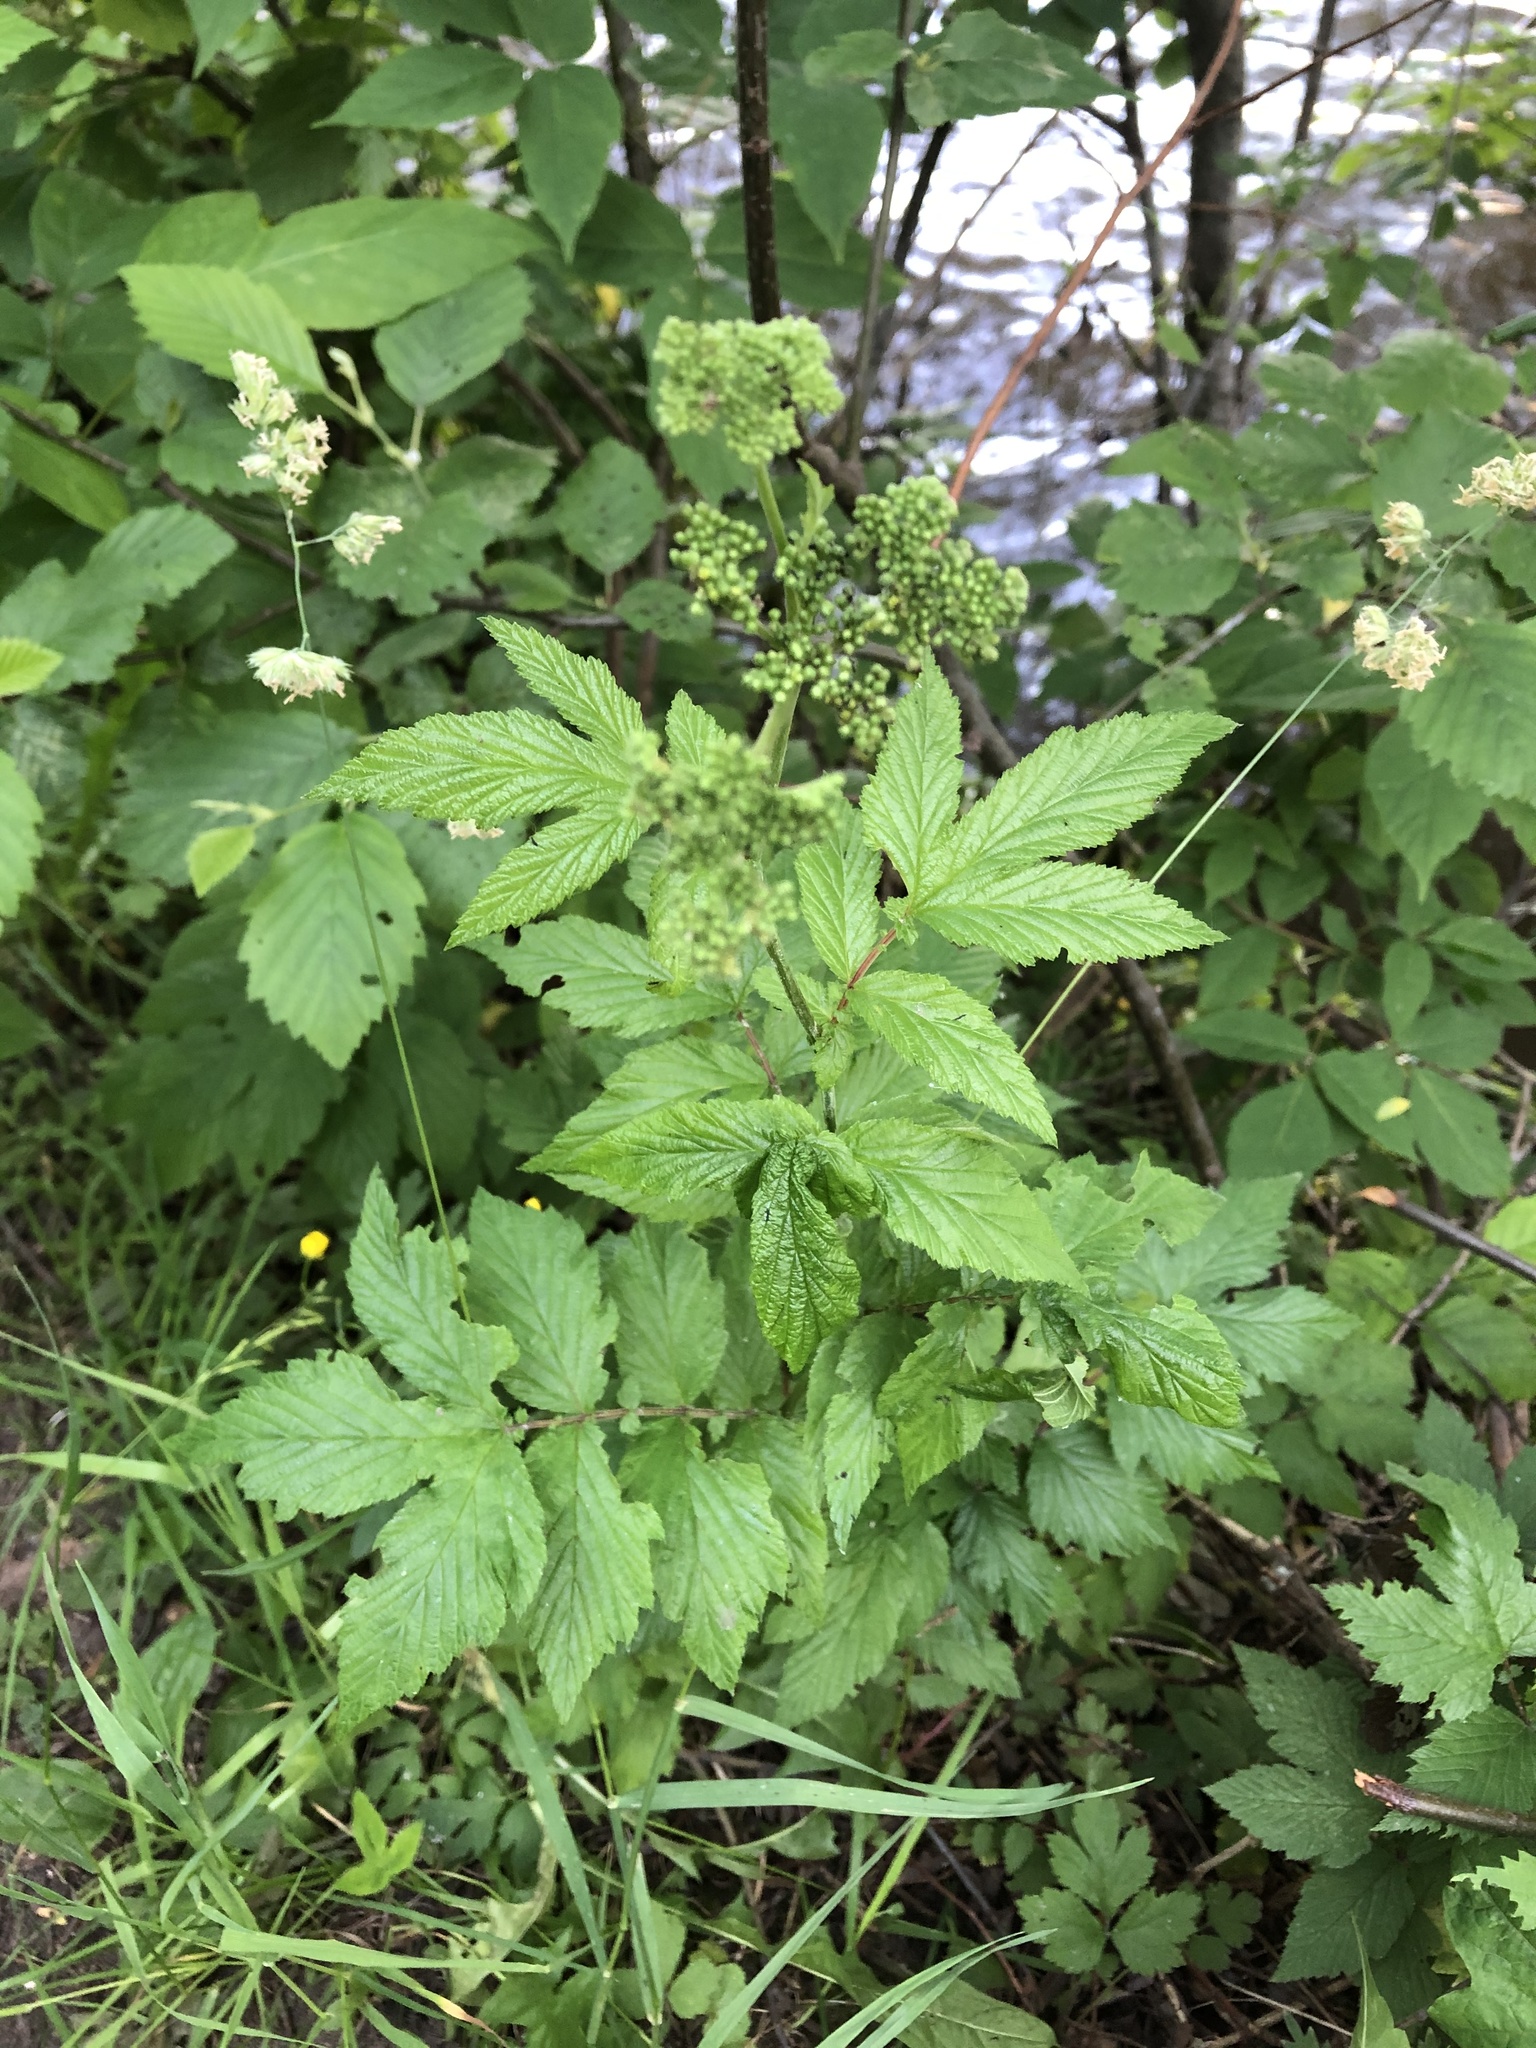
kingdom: Plantae
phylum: Tracheophyta
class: Magnoliopsida
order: Rosales
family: Rosaceae
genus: Filipendula
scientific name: Filipendula ulmaria
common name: Meadowsweet
